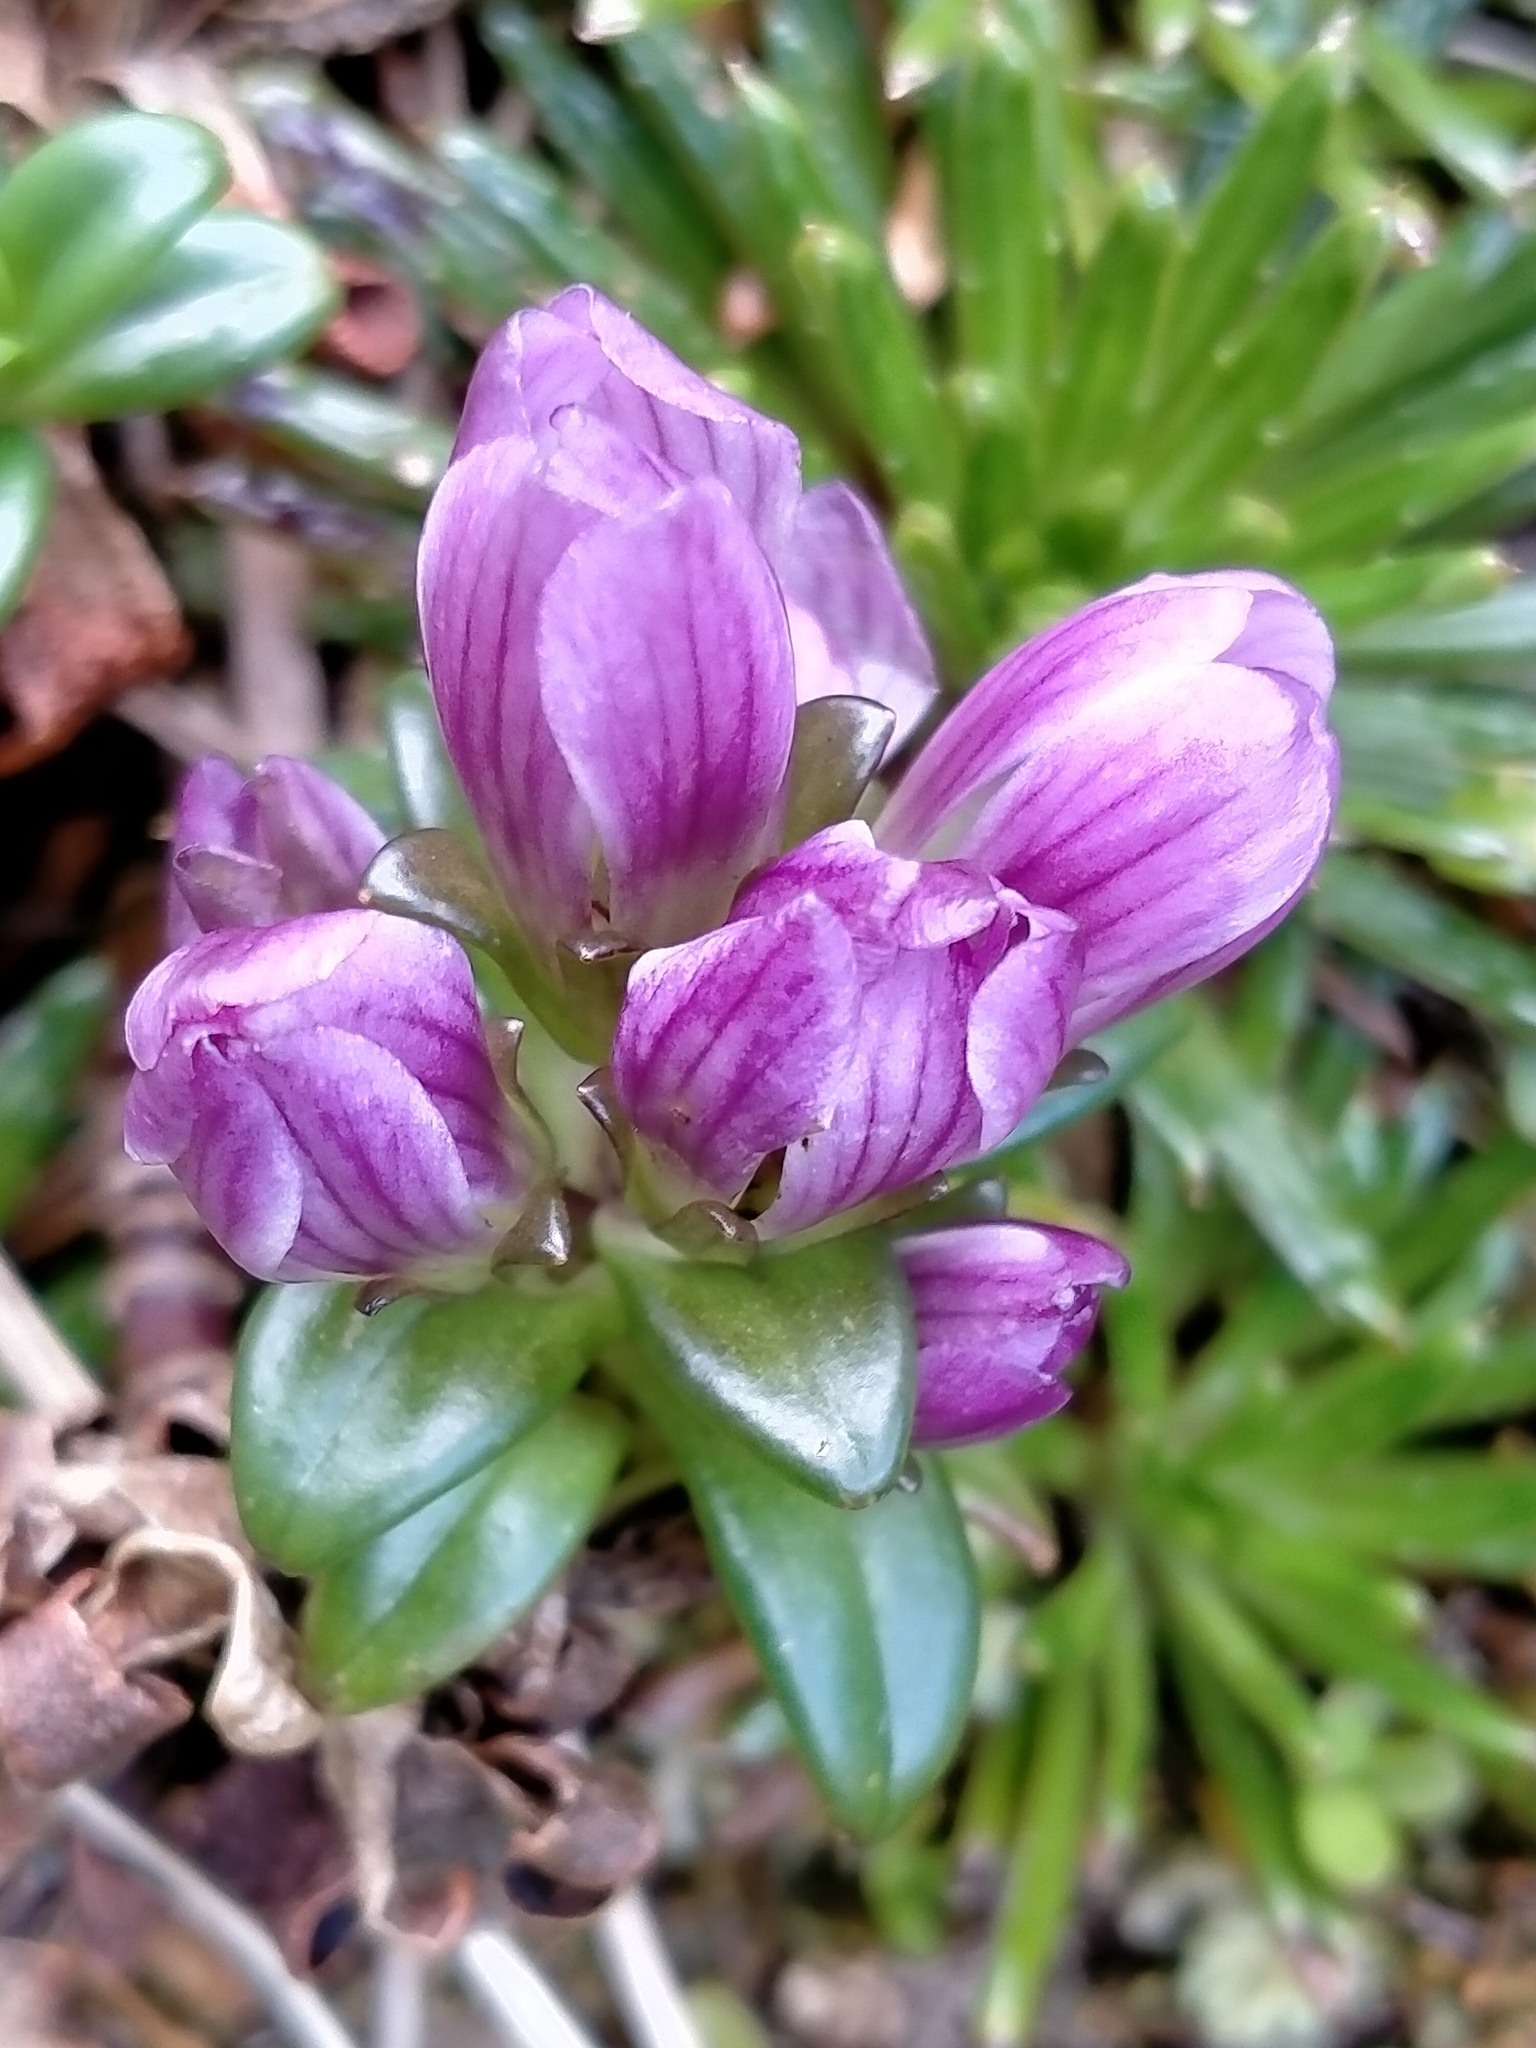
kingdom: Plantae
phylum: Tracheophyta
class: Magnoliopsida
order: Gentianales
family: Gentianaceae
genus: Gentianella
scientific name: Gentianella concinna
